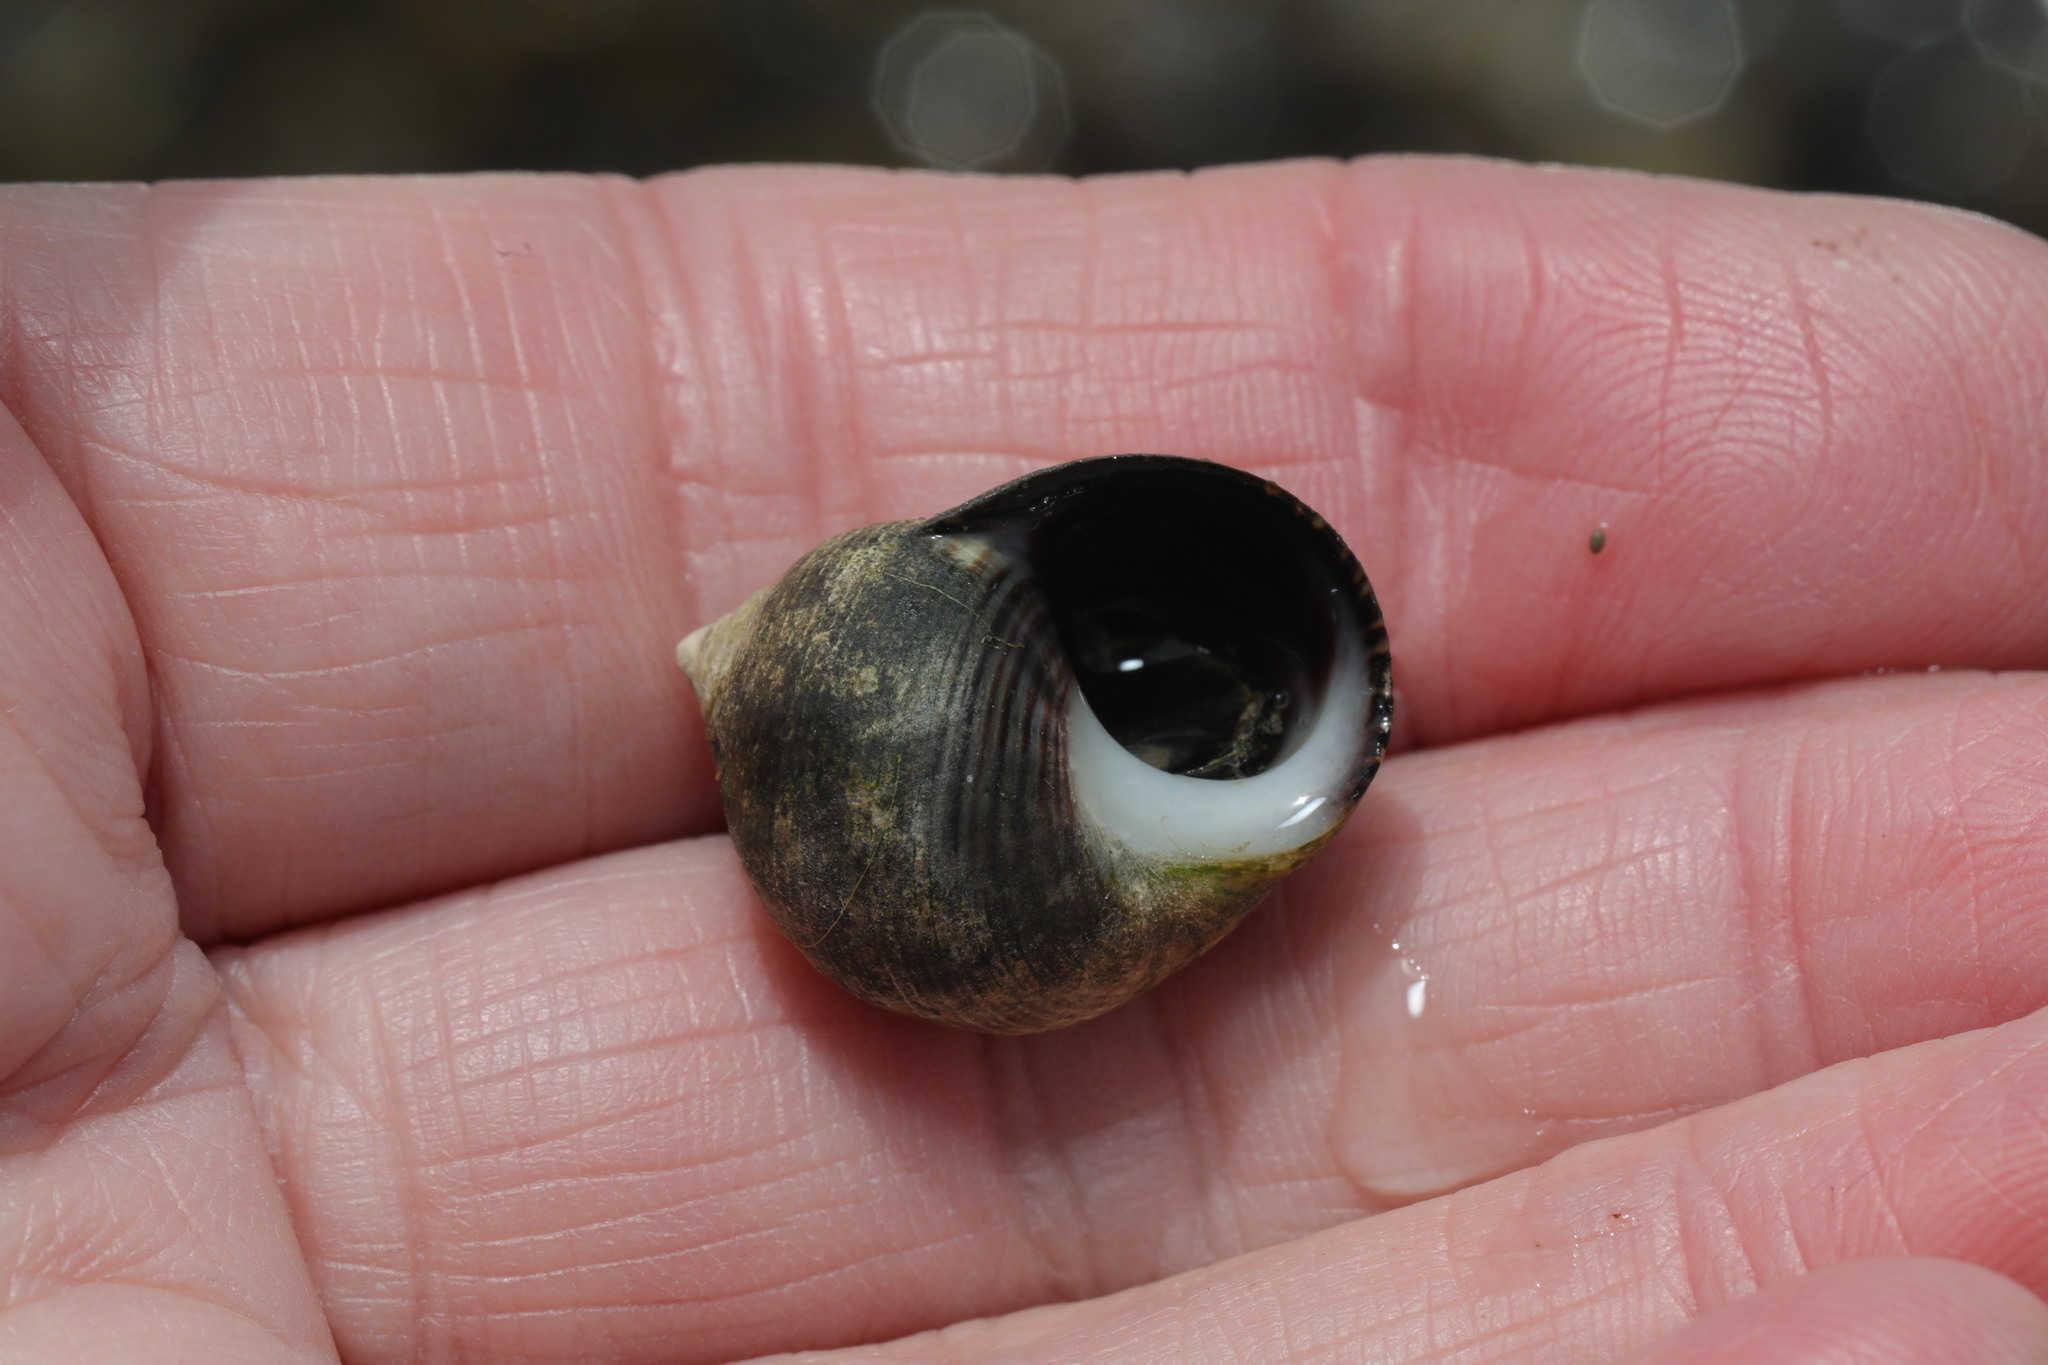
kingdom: Animalia
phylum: Mollusca
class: Gastropoda
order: Littorinimorpha
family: Littorinidae
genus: Littorina
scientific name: Littorina littorea
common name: Common periwinkle
